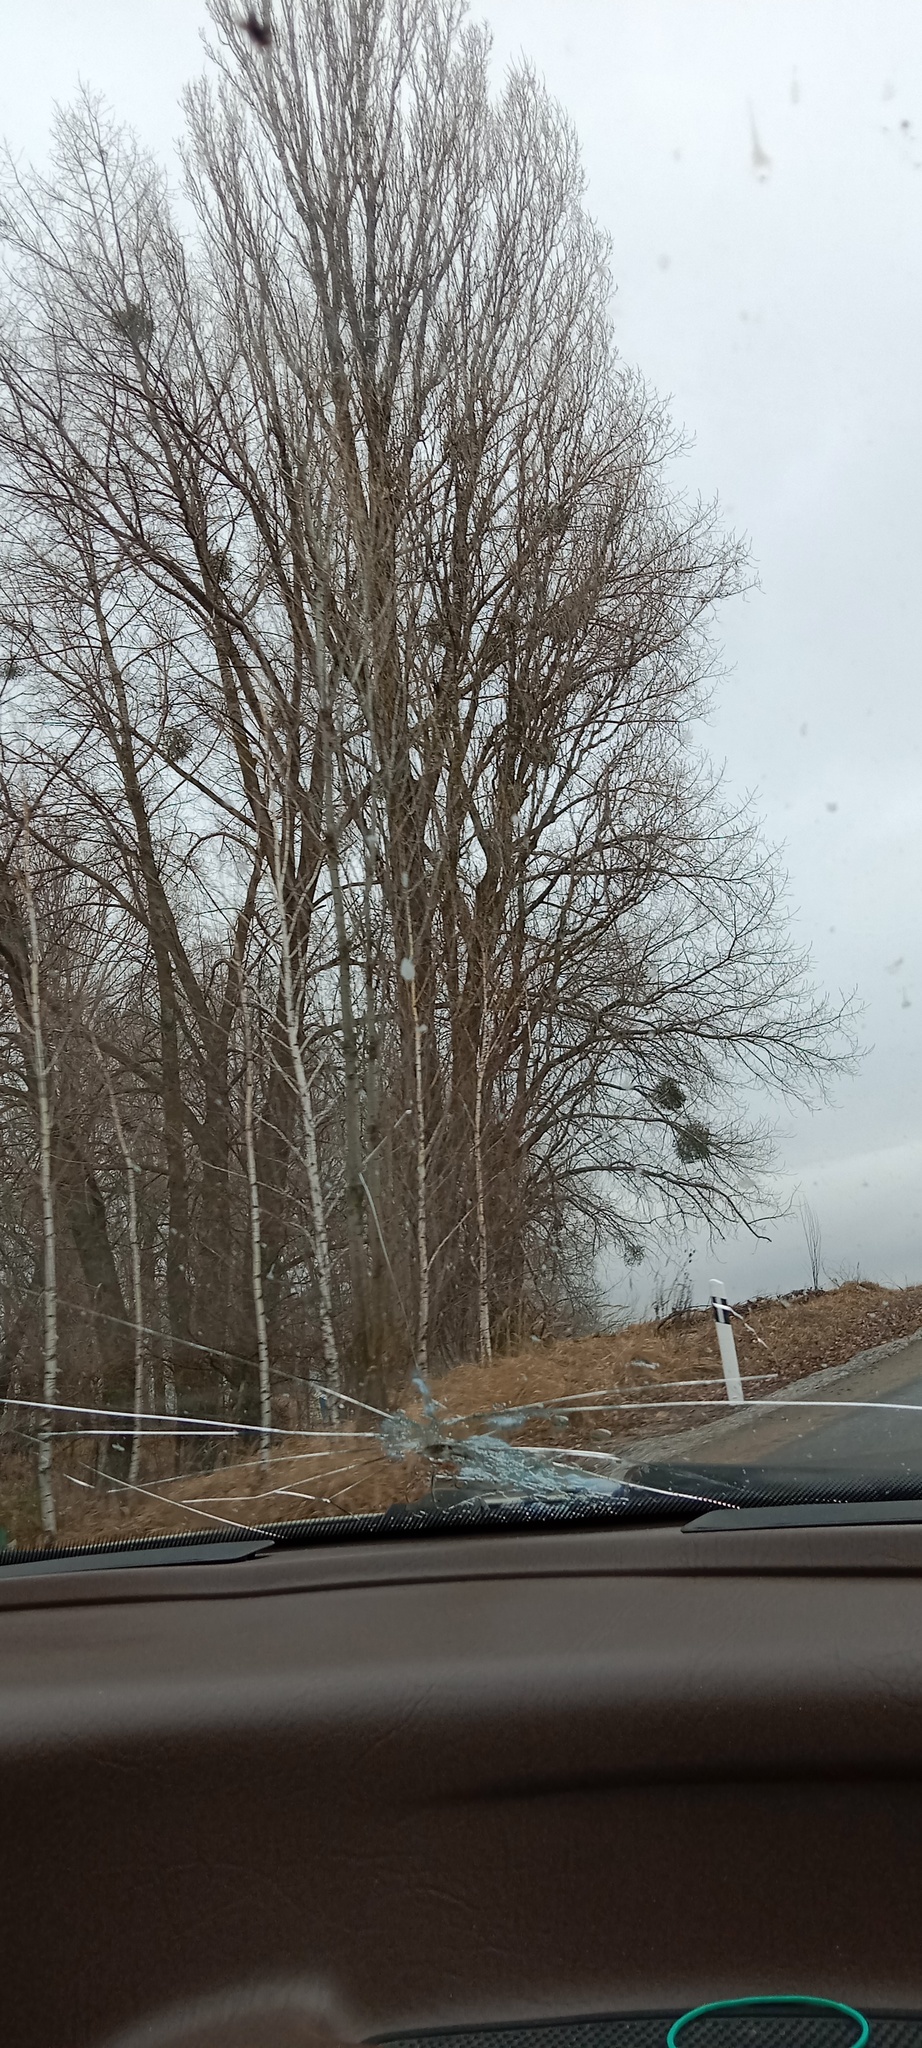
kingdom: Plantae
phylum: Tracheophyta
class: Magnoliopsida
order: Santalales
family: Viscaceae
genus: Viscum
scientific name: Viscum album
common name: Mistletoe
